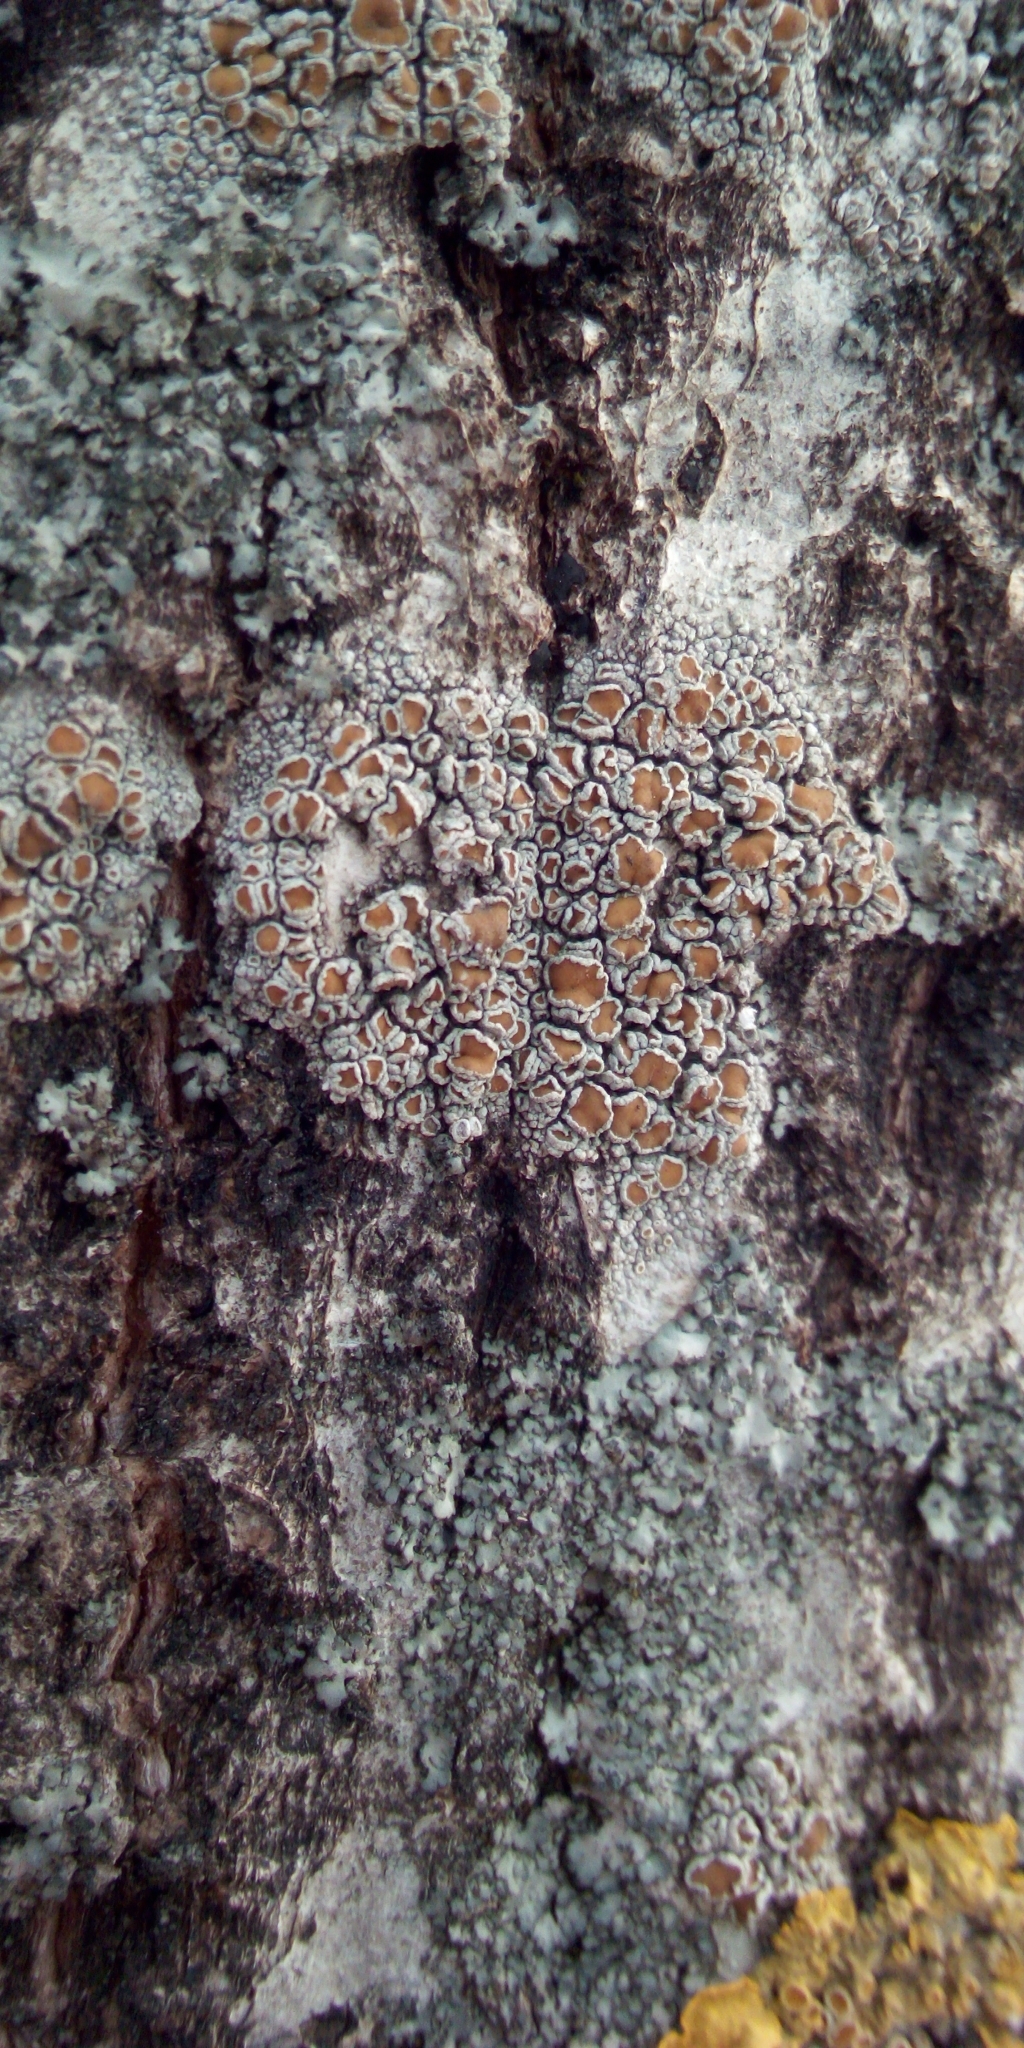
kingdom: Fungi
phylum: Ascomycota
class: Lecanoromycetes
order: Lecanorales
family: Lecanoraceae
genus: Lecanora
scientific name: Lecanora
